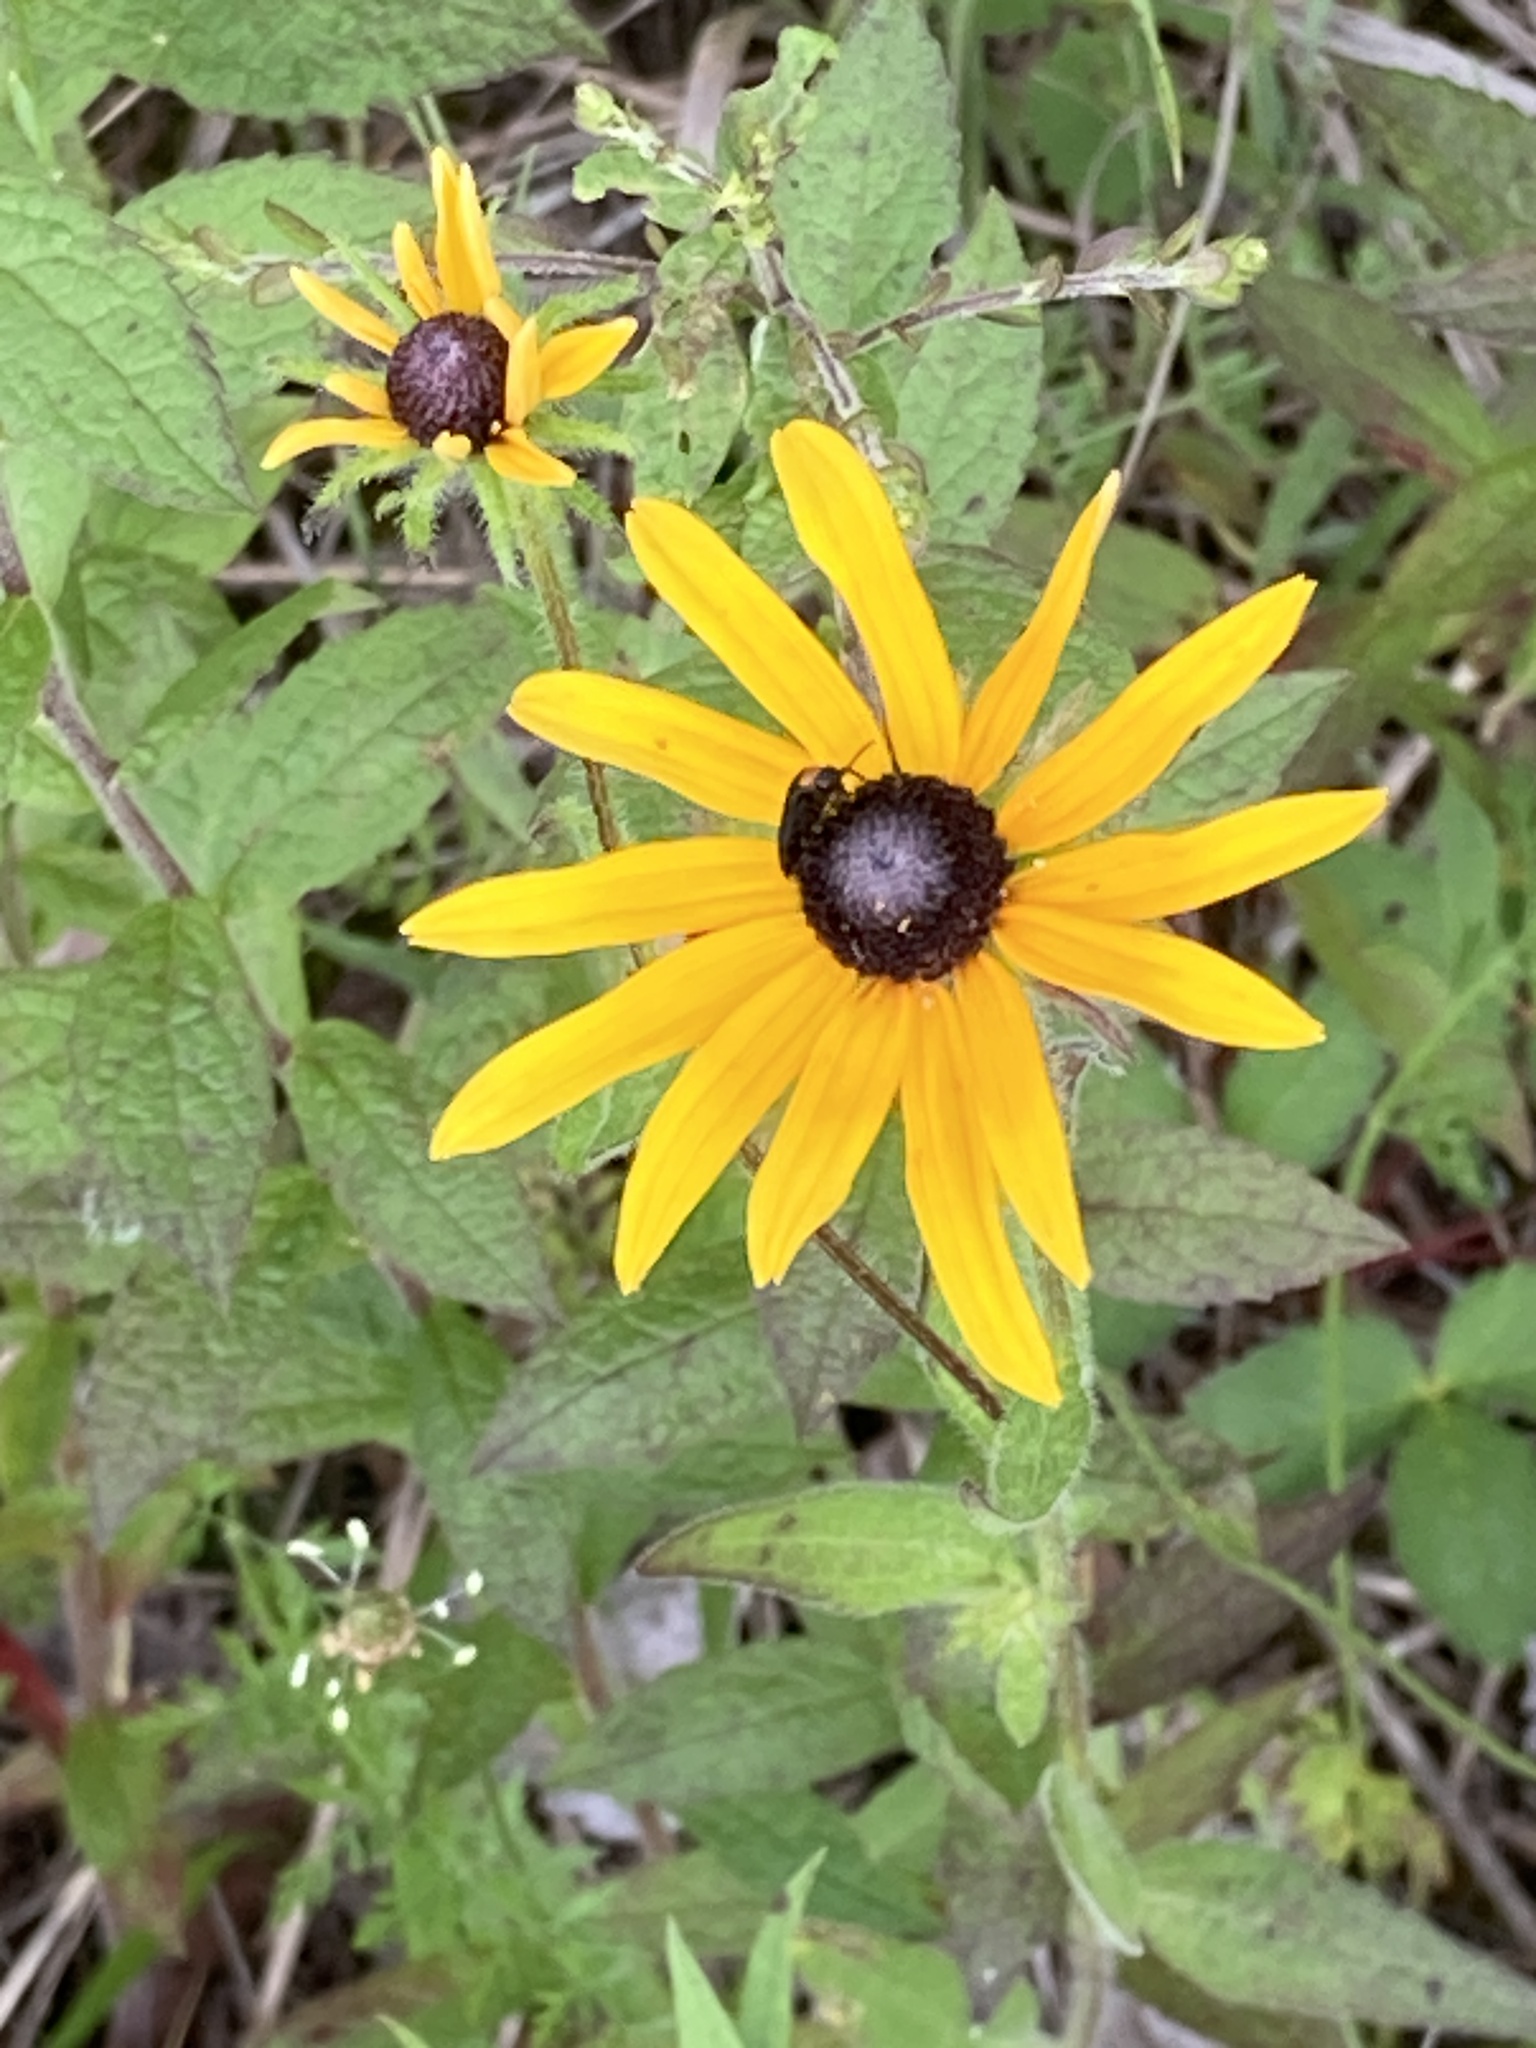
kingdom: Plantae
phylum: Tracheophyta
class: Magnoliopsida
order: Asterales
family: Asteraceae
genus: Rudbeckia
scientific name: Rudbeckia hirta
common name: Black-eyed-susan
